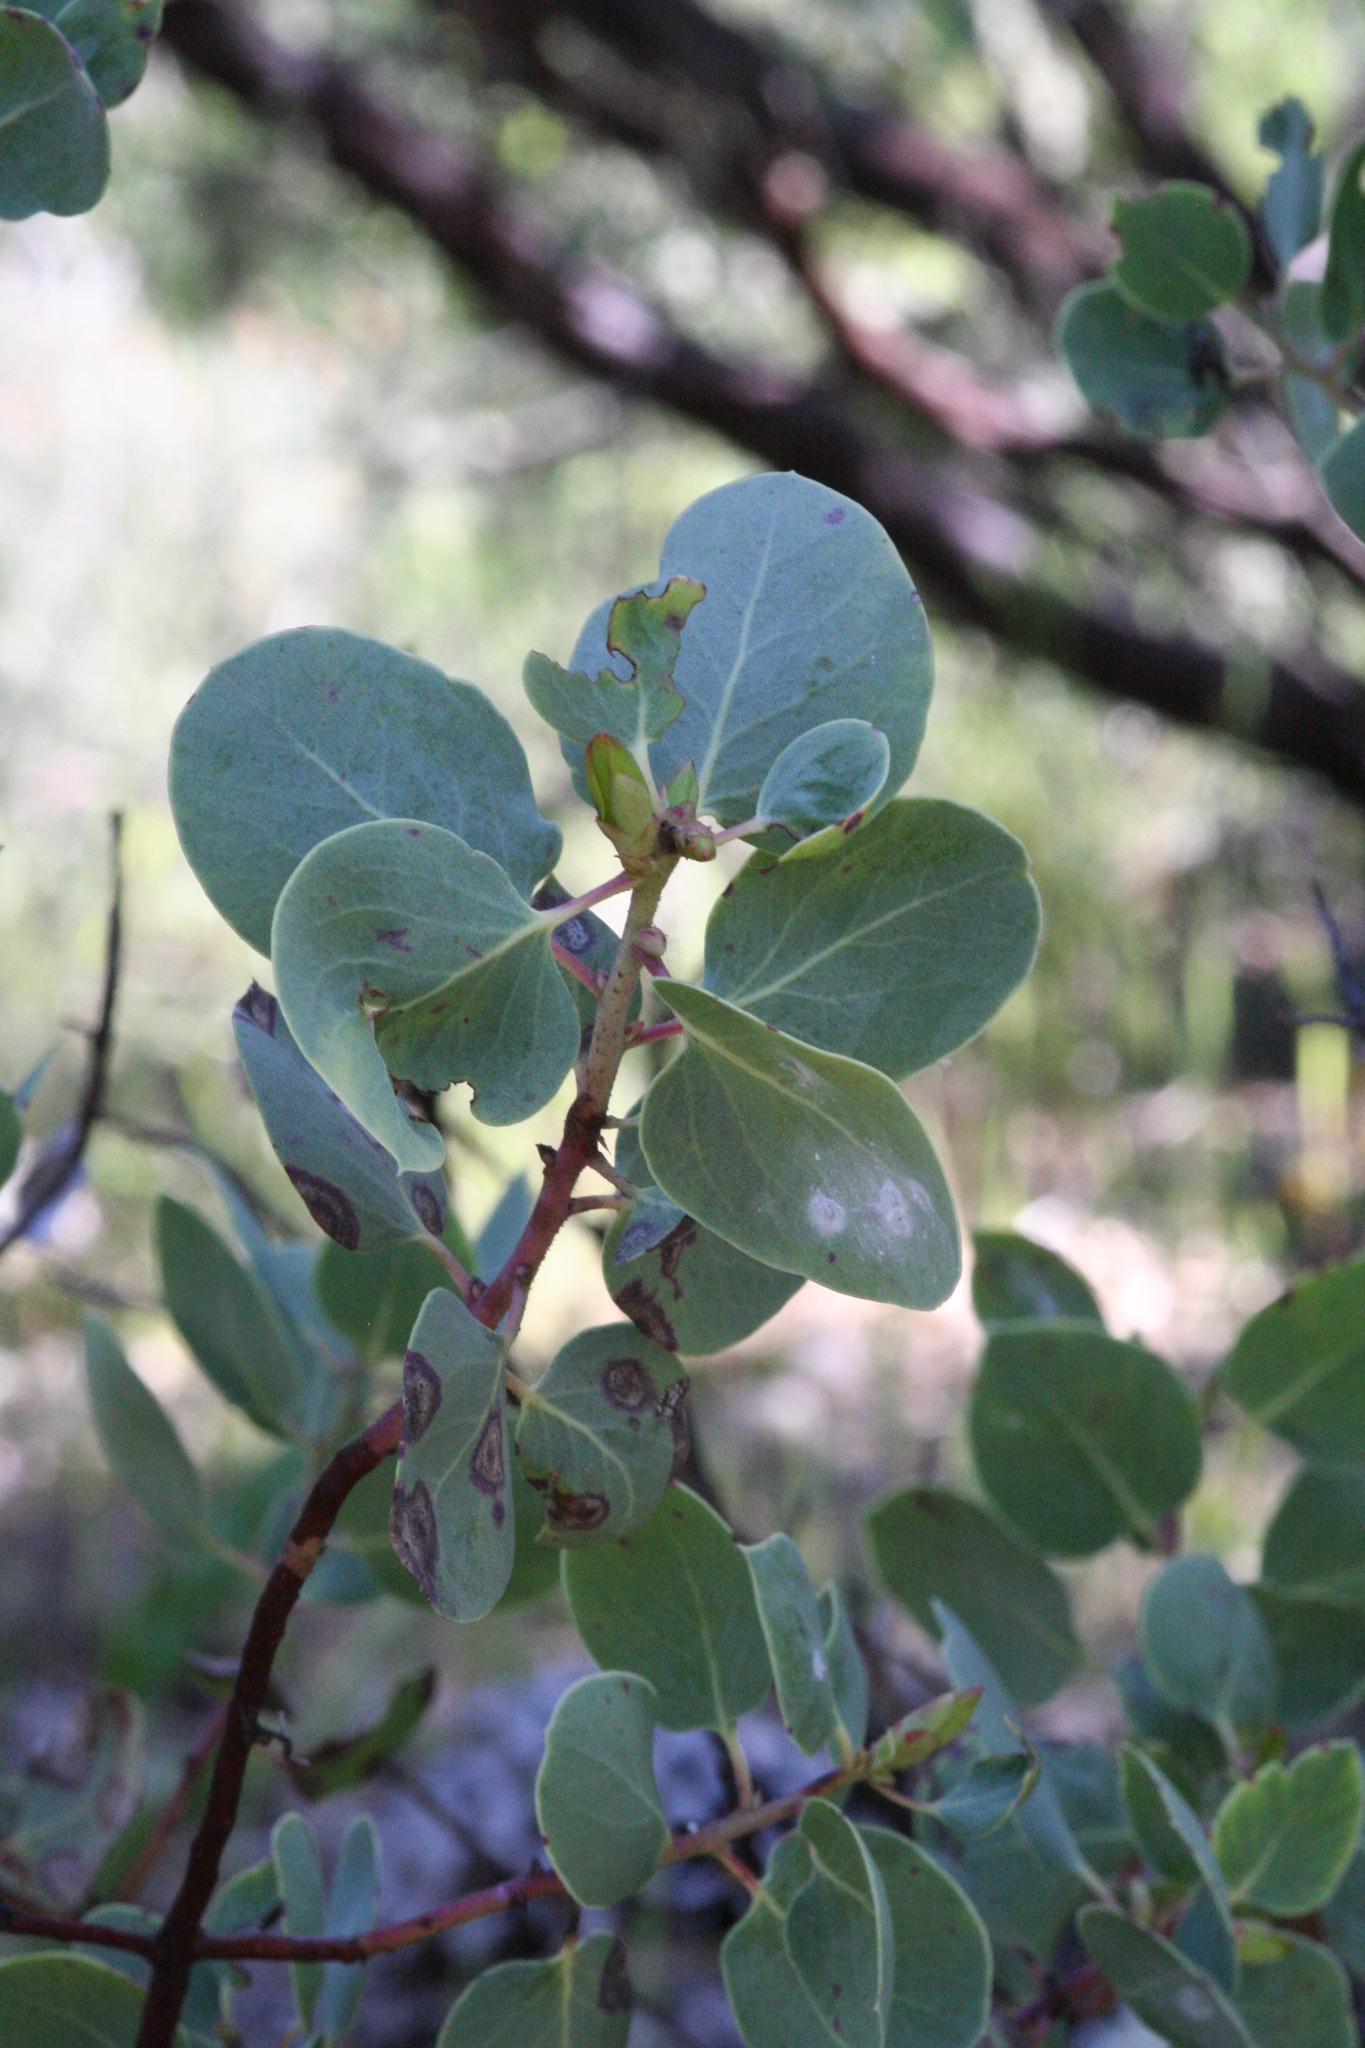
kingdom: Plantae
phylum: Tracheophyta
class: Magnoliopsida
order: Ericales
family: Ericaceae
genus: Arctostaphylos
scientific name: Arctostaphylos glauca
